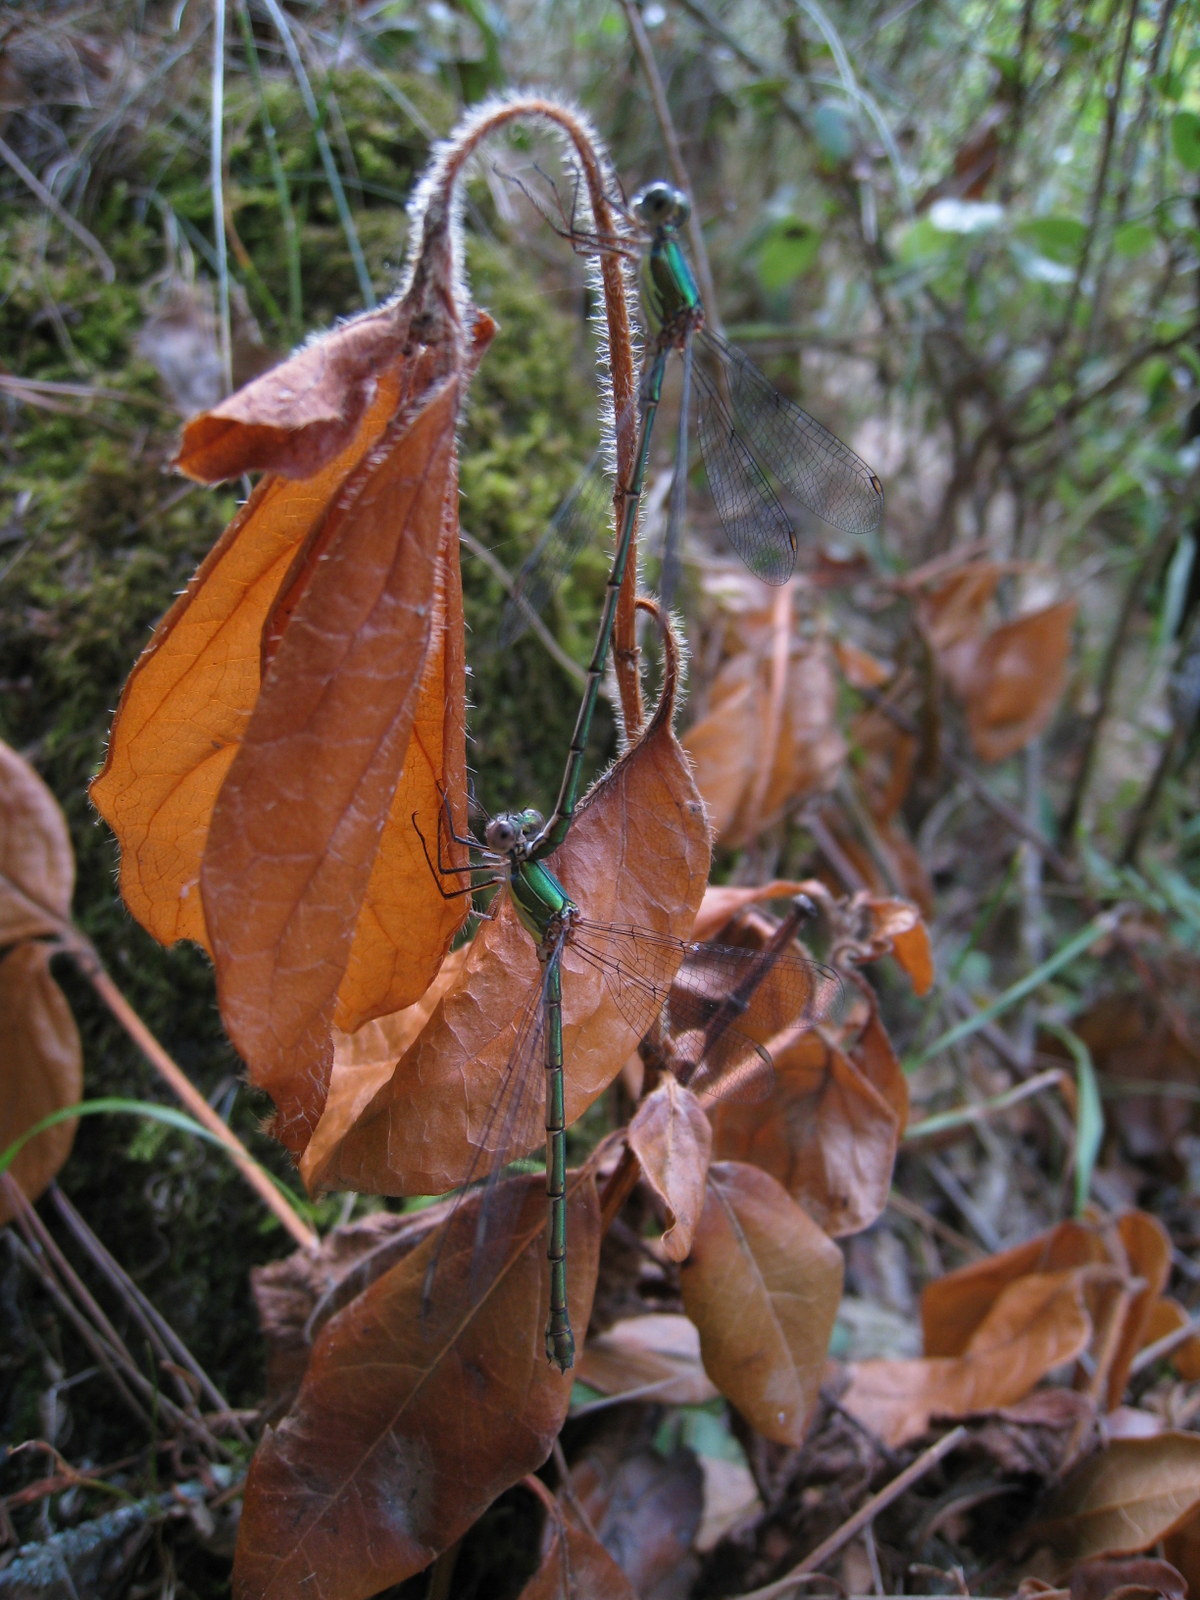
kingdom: Animalia
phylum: Arthropoda
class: Insecta
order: Odonata
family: Lestidae
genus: Chalcolestes
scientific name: Chalcolestes viridis
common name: Green emerald damselfly
